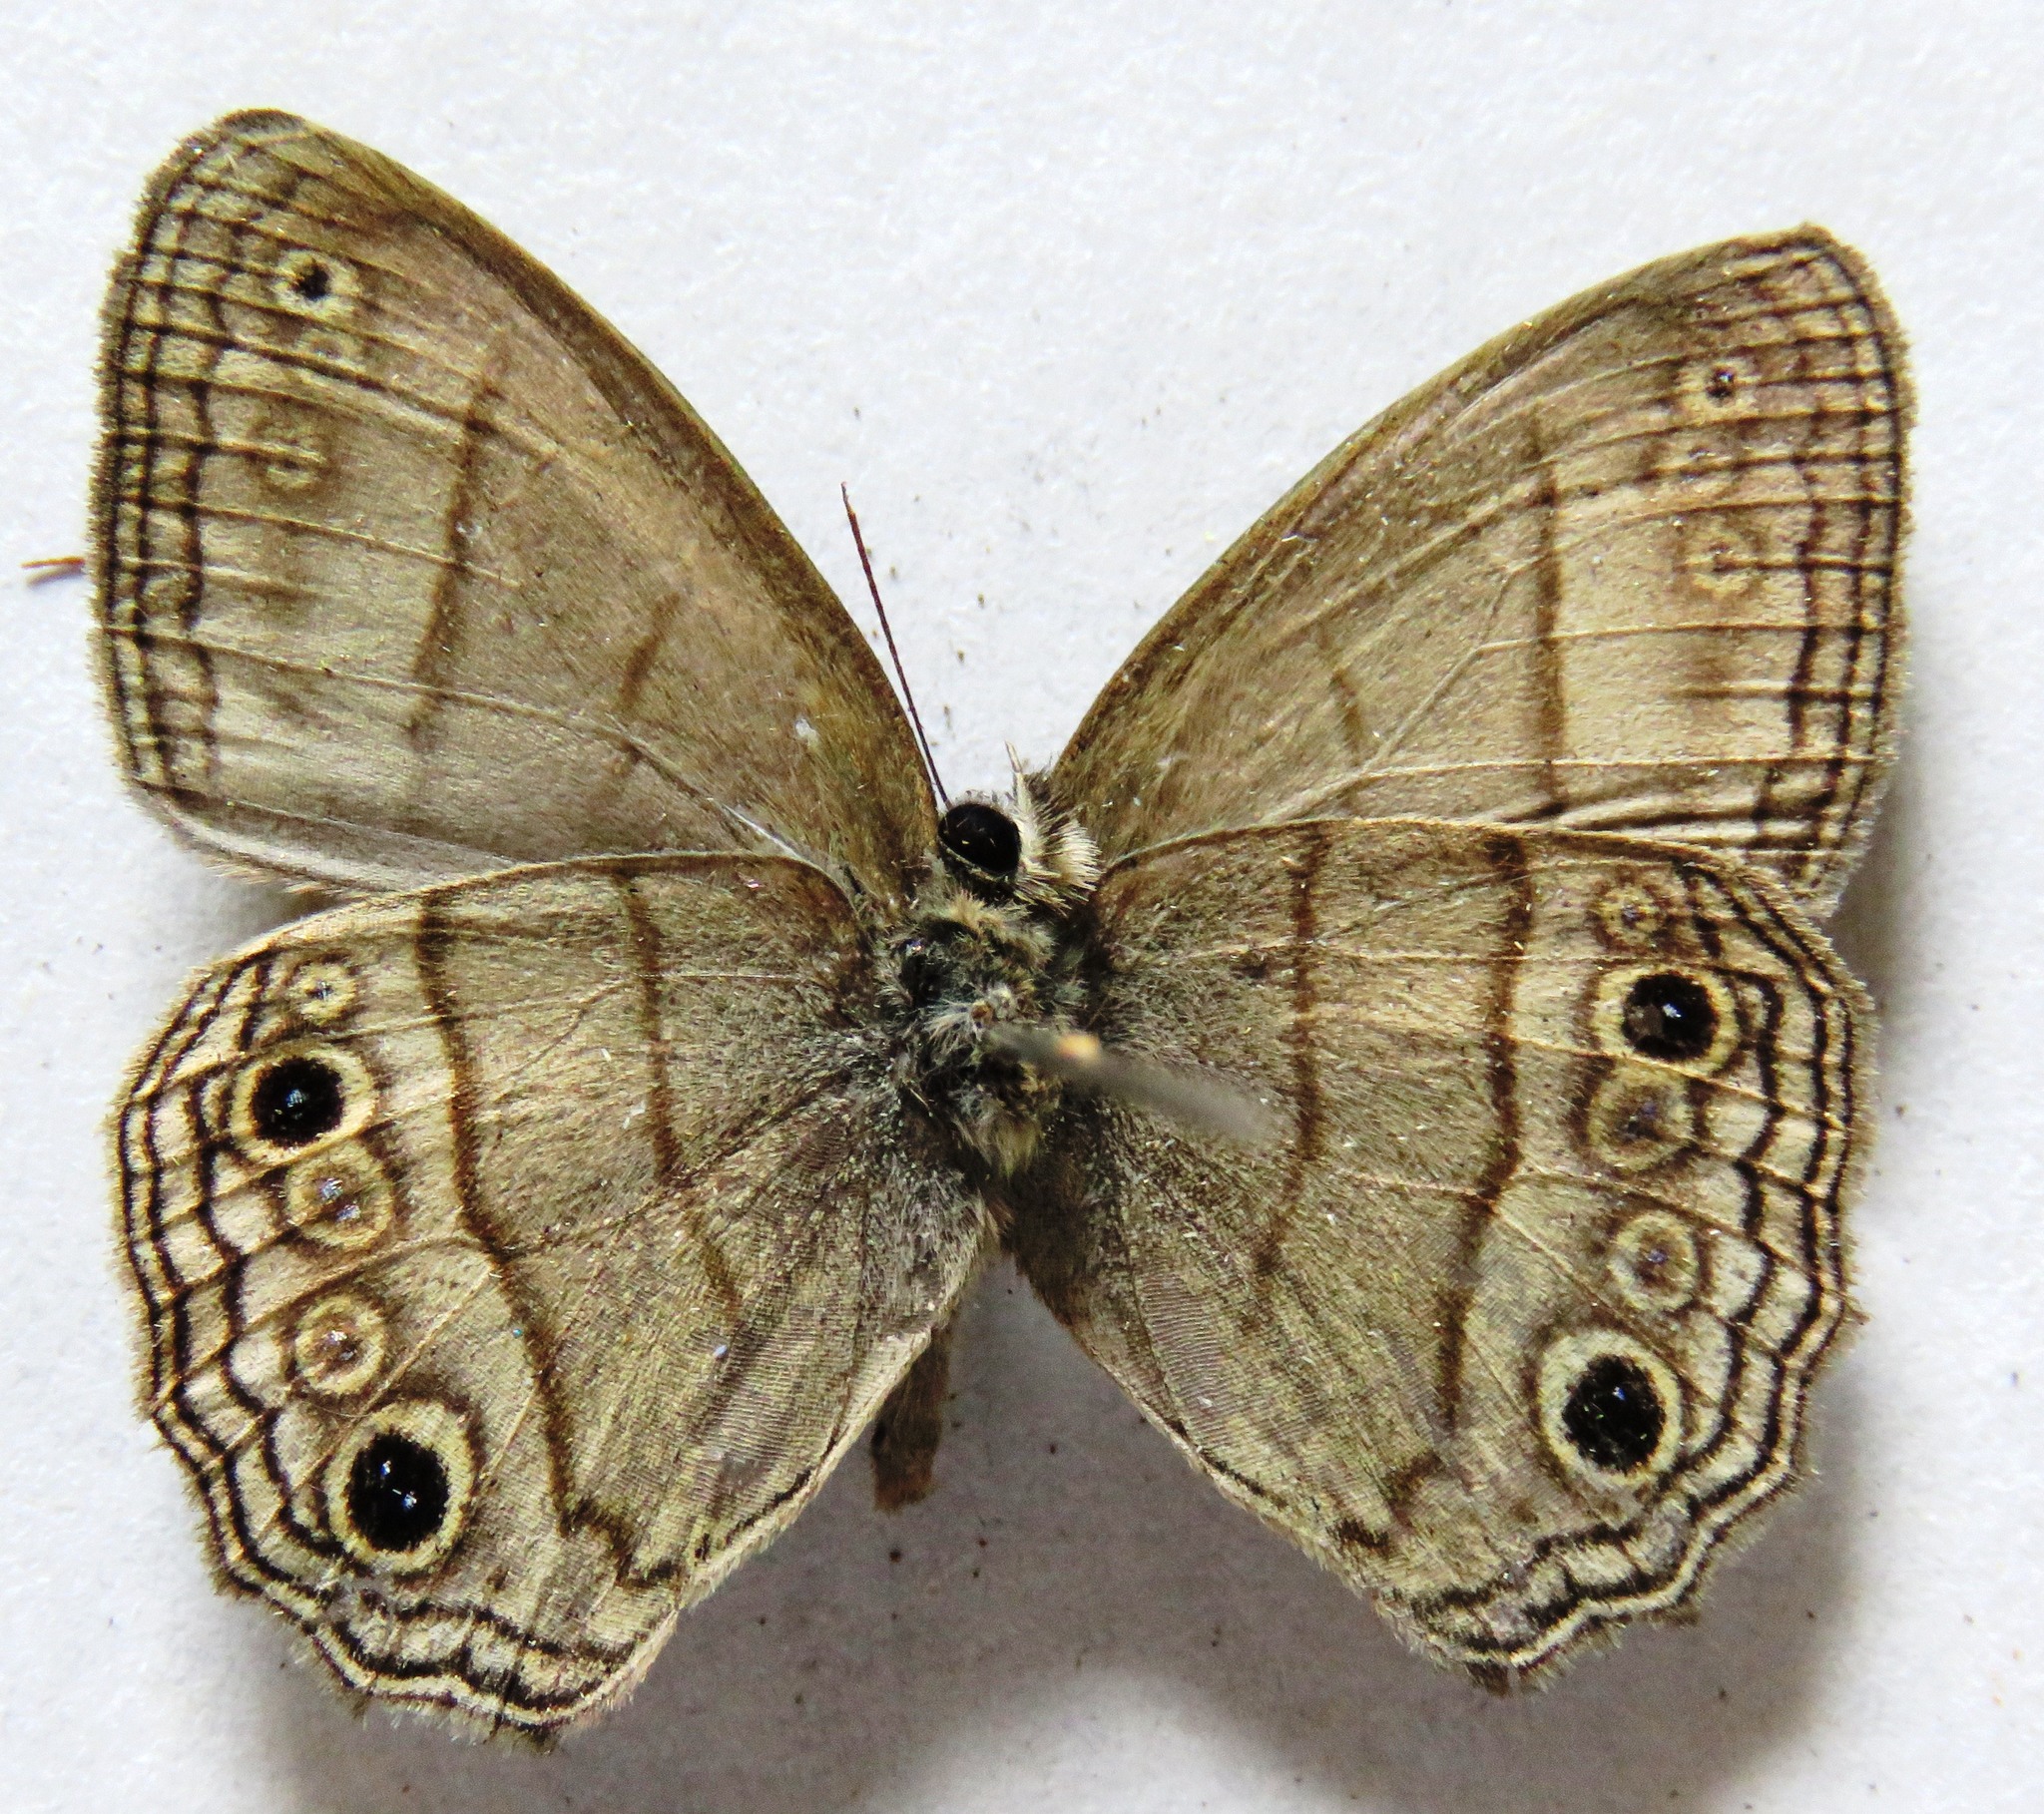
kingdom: Animalia
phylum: Arthropoda
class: Insecta
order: Lepidoptera
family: Nymphalidae
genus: Vareuptychia
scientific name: Vareuptychia similis
